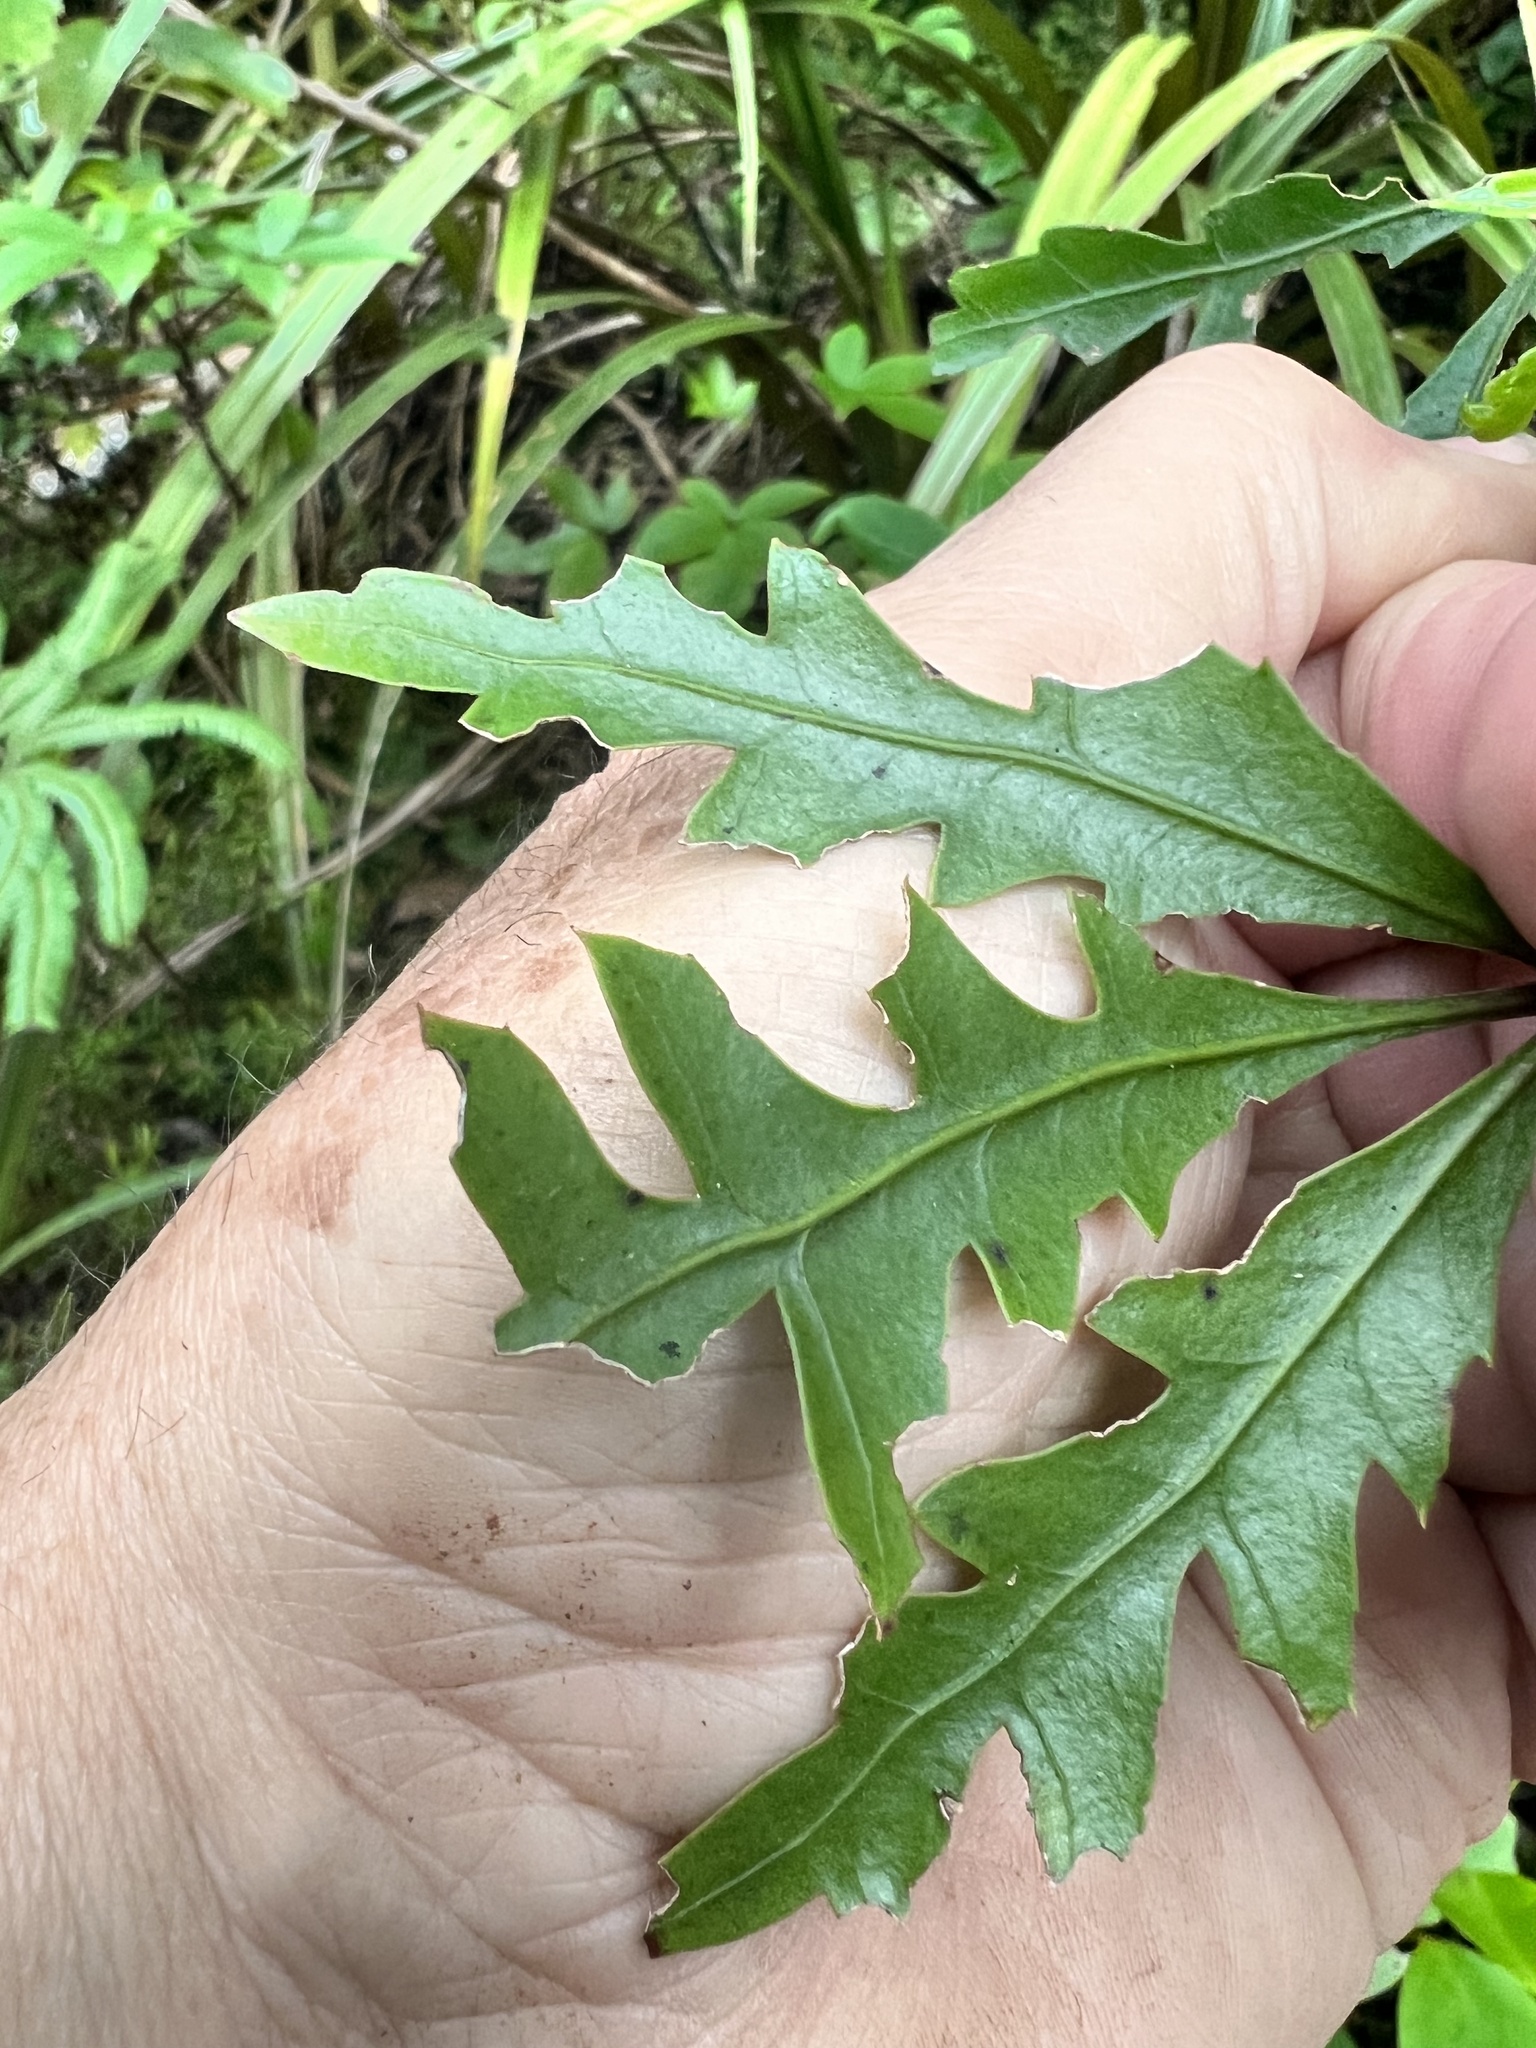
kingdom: Plantae
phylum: Tracheophyta
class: Magnoliopsida
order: Apiales
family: Araliaceae
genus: Raukaua
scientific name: Raukaua simplex
